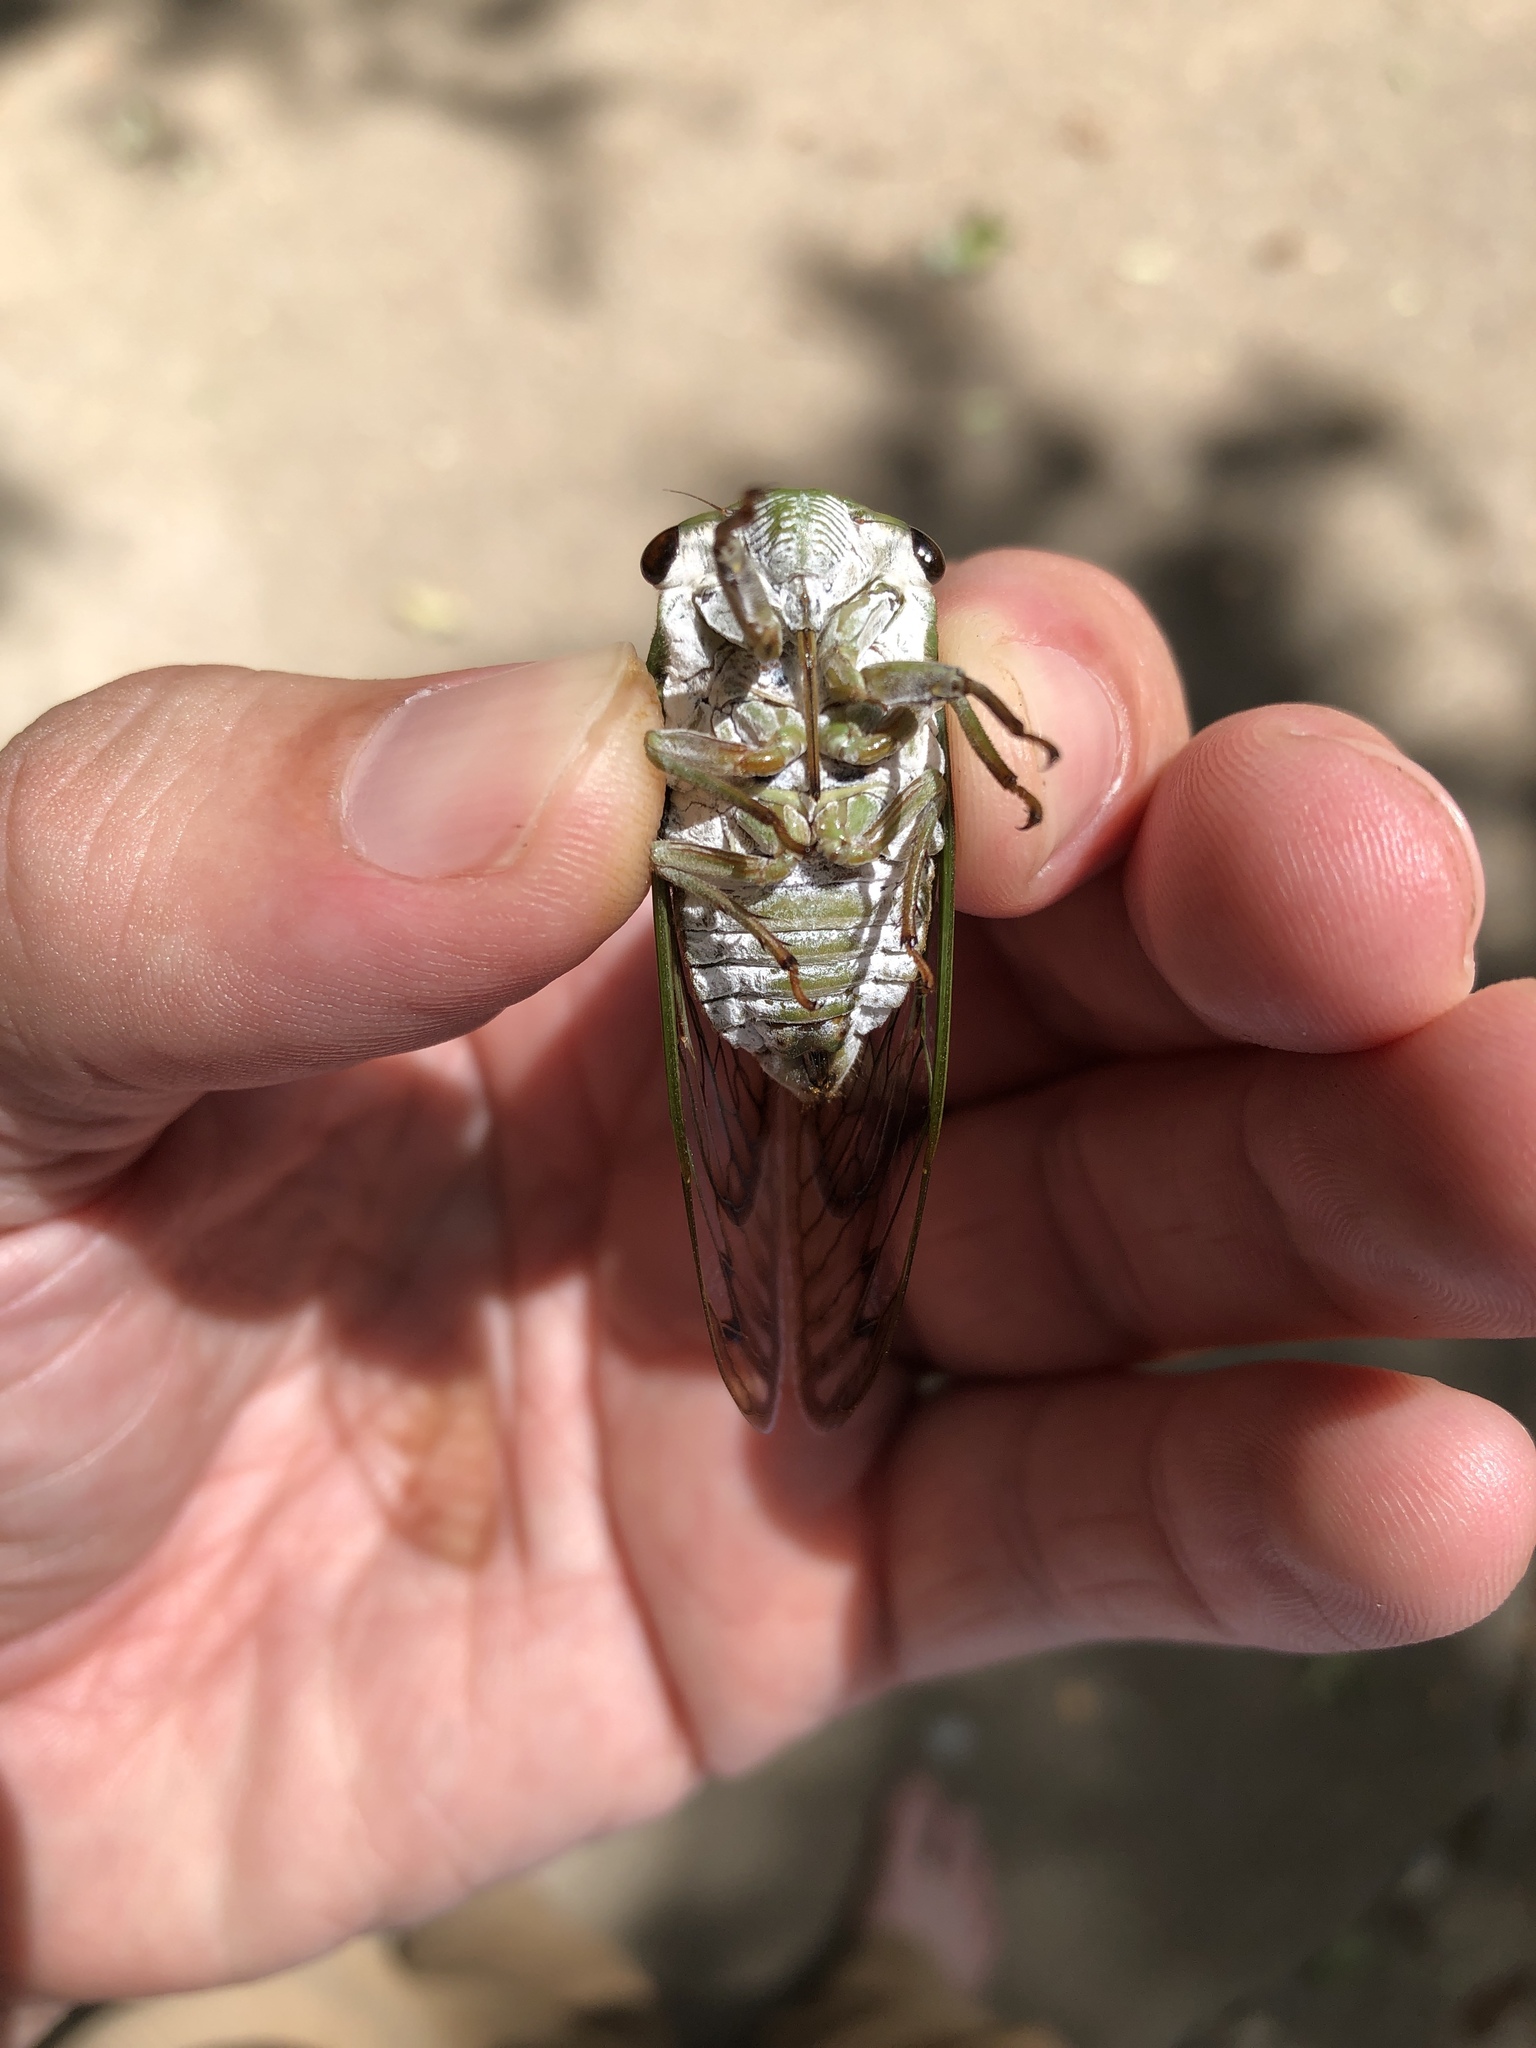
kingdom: Animalia
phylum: Arthropoda
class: Insecta
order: Hemiptera
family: Cicadidae
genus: Neotibicen
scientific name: Neotibicen superbus
